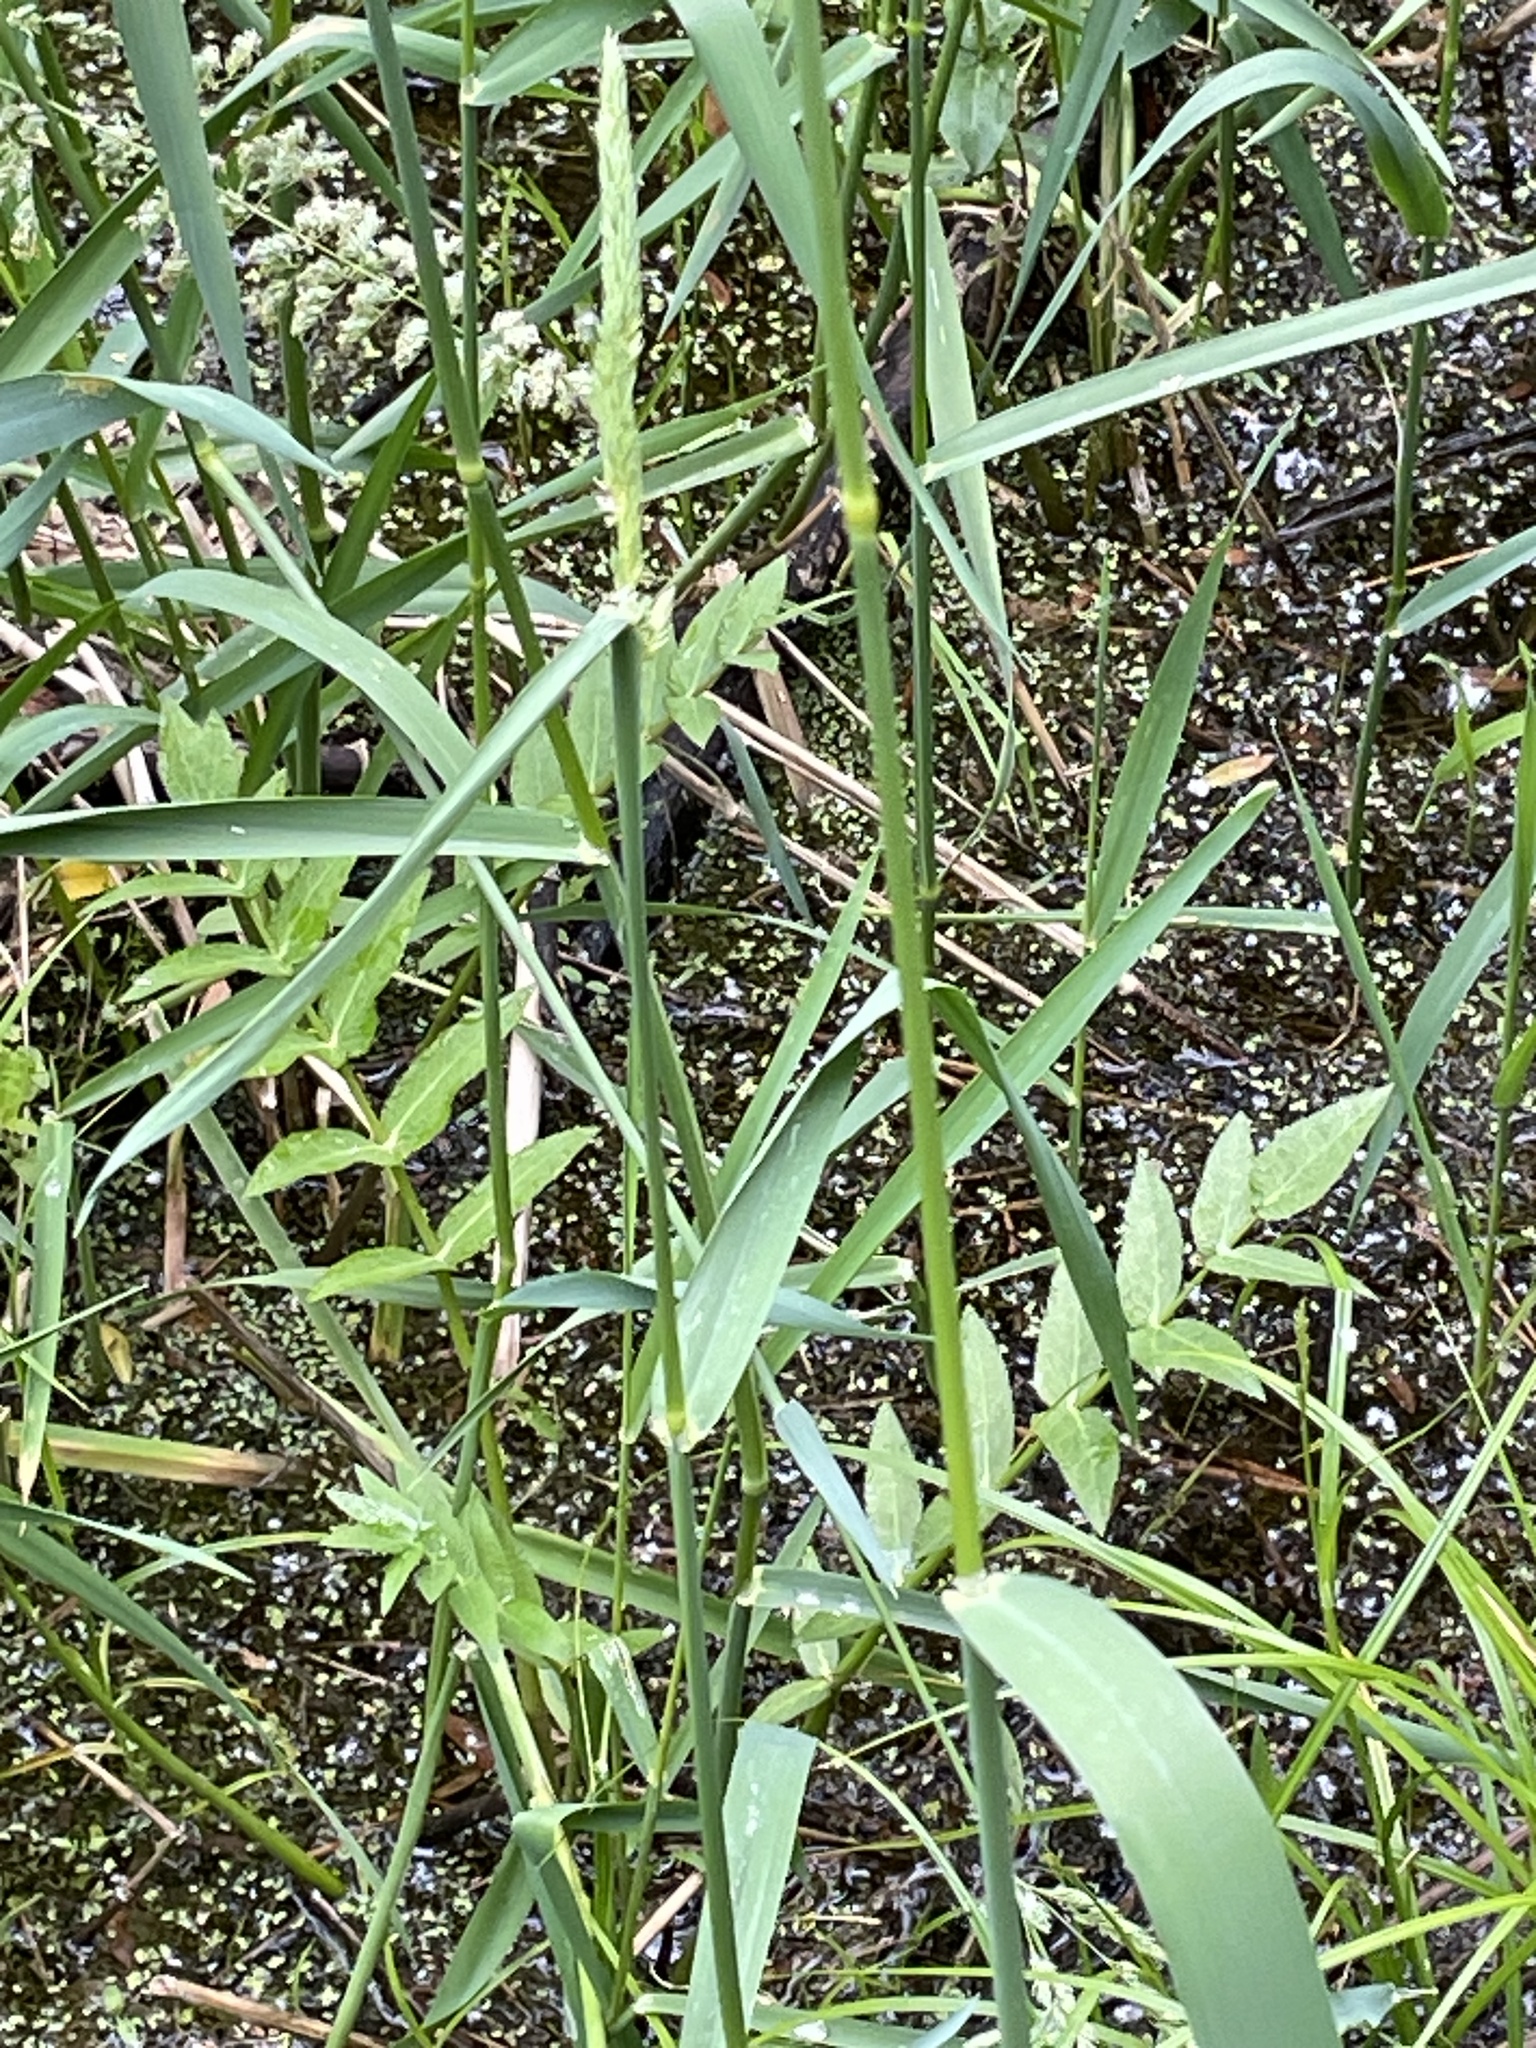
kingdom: Plantae
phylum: Tracheophyta
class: Magnoliopsida
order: Apiales
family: Apiaceae
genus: Sium
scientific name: Sium suave
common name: Hemlock water-parsnip
